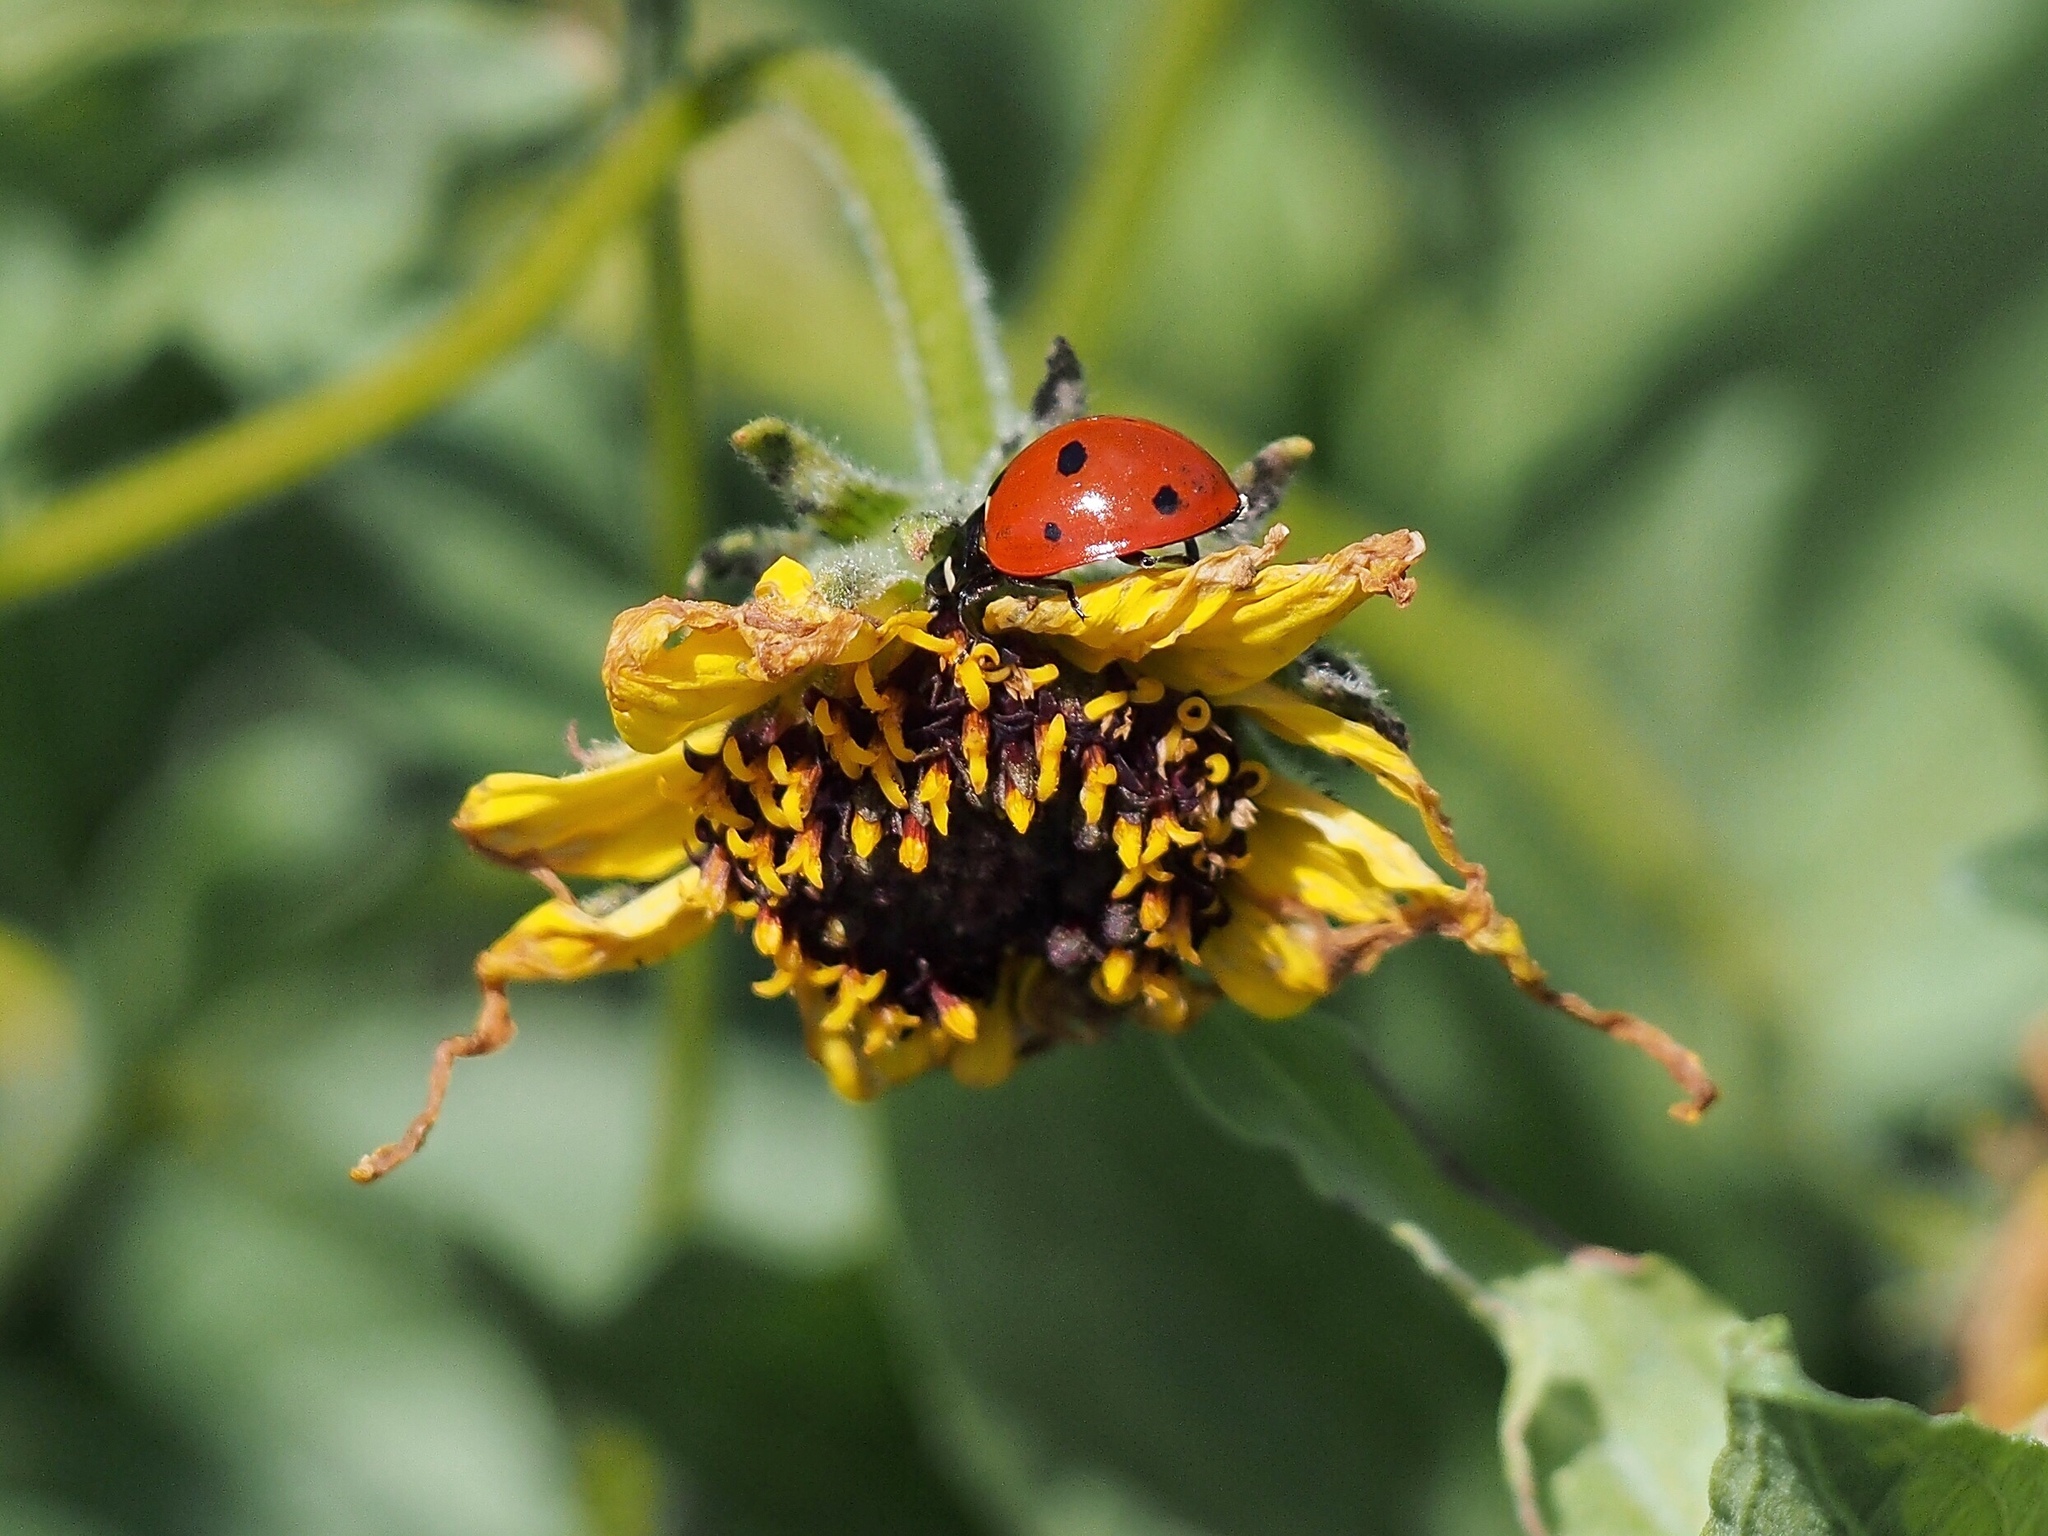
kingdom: Animalia
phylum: Arthropoda
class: Insecta
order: Coleoptera
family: Coccinellidae
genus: Coccinella
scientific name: Coccinella septempunctata
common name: Sevenspotted lady beetle
